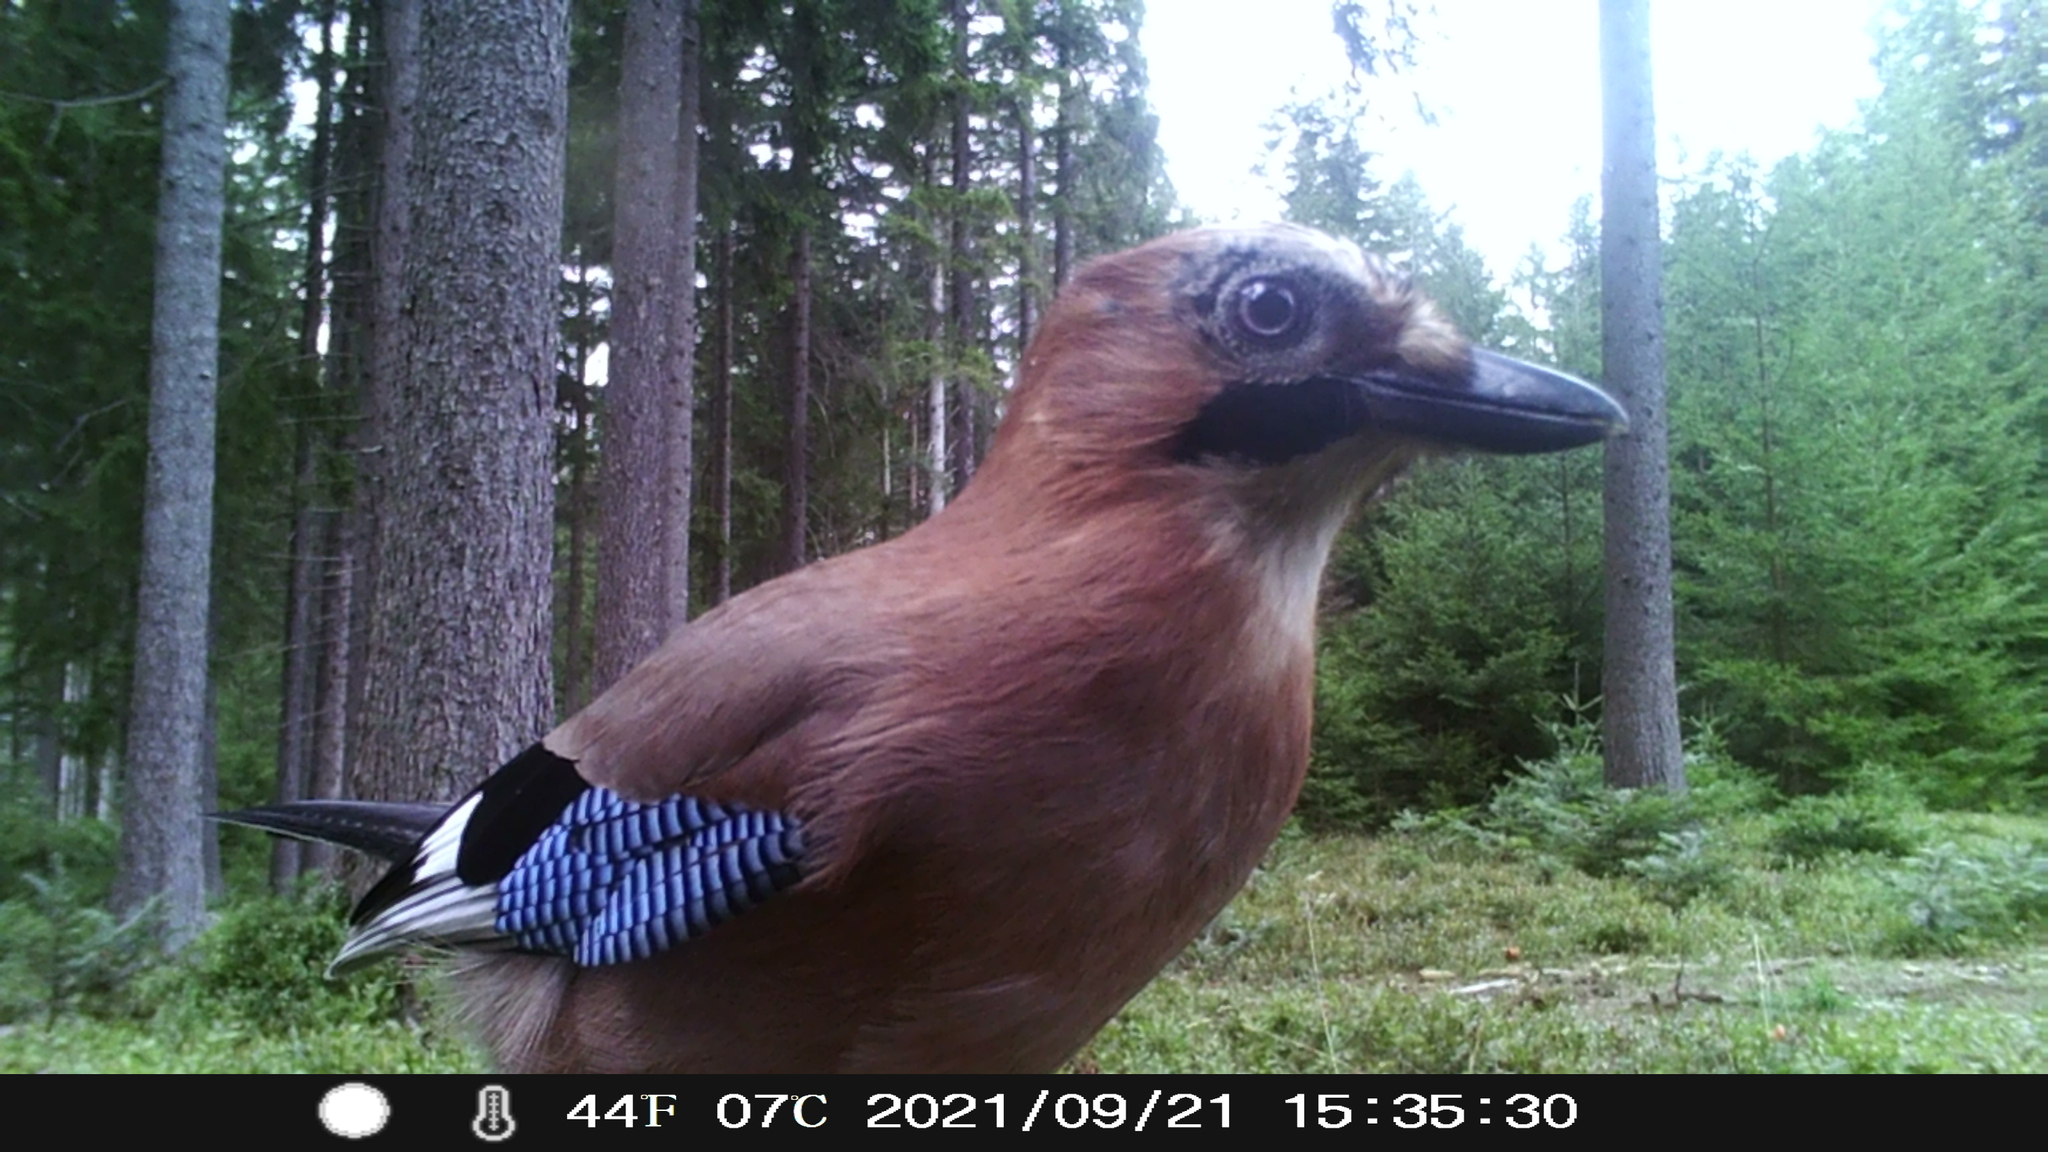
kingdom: Animalia
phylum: Chordata
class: Aves
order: Passeriformes
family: Corvidae
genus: Garrulus
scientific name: Garrulus glandarius
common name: Eurasian jay
